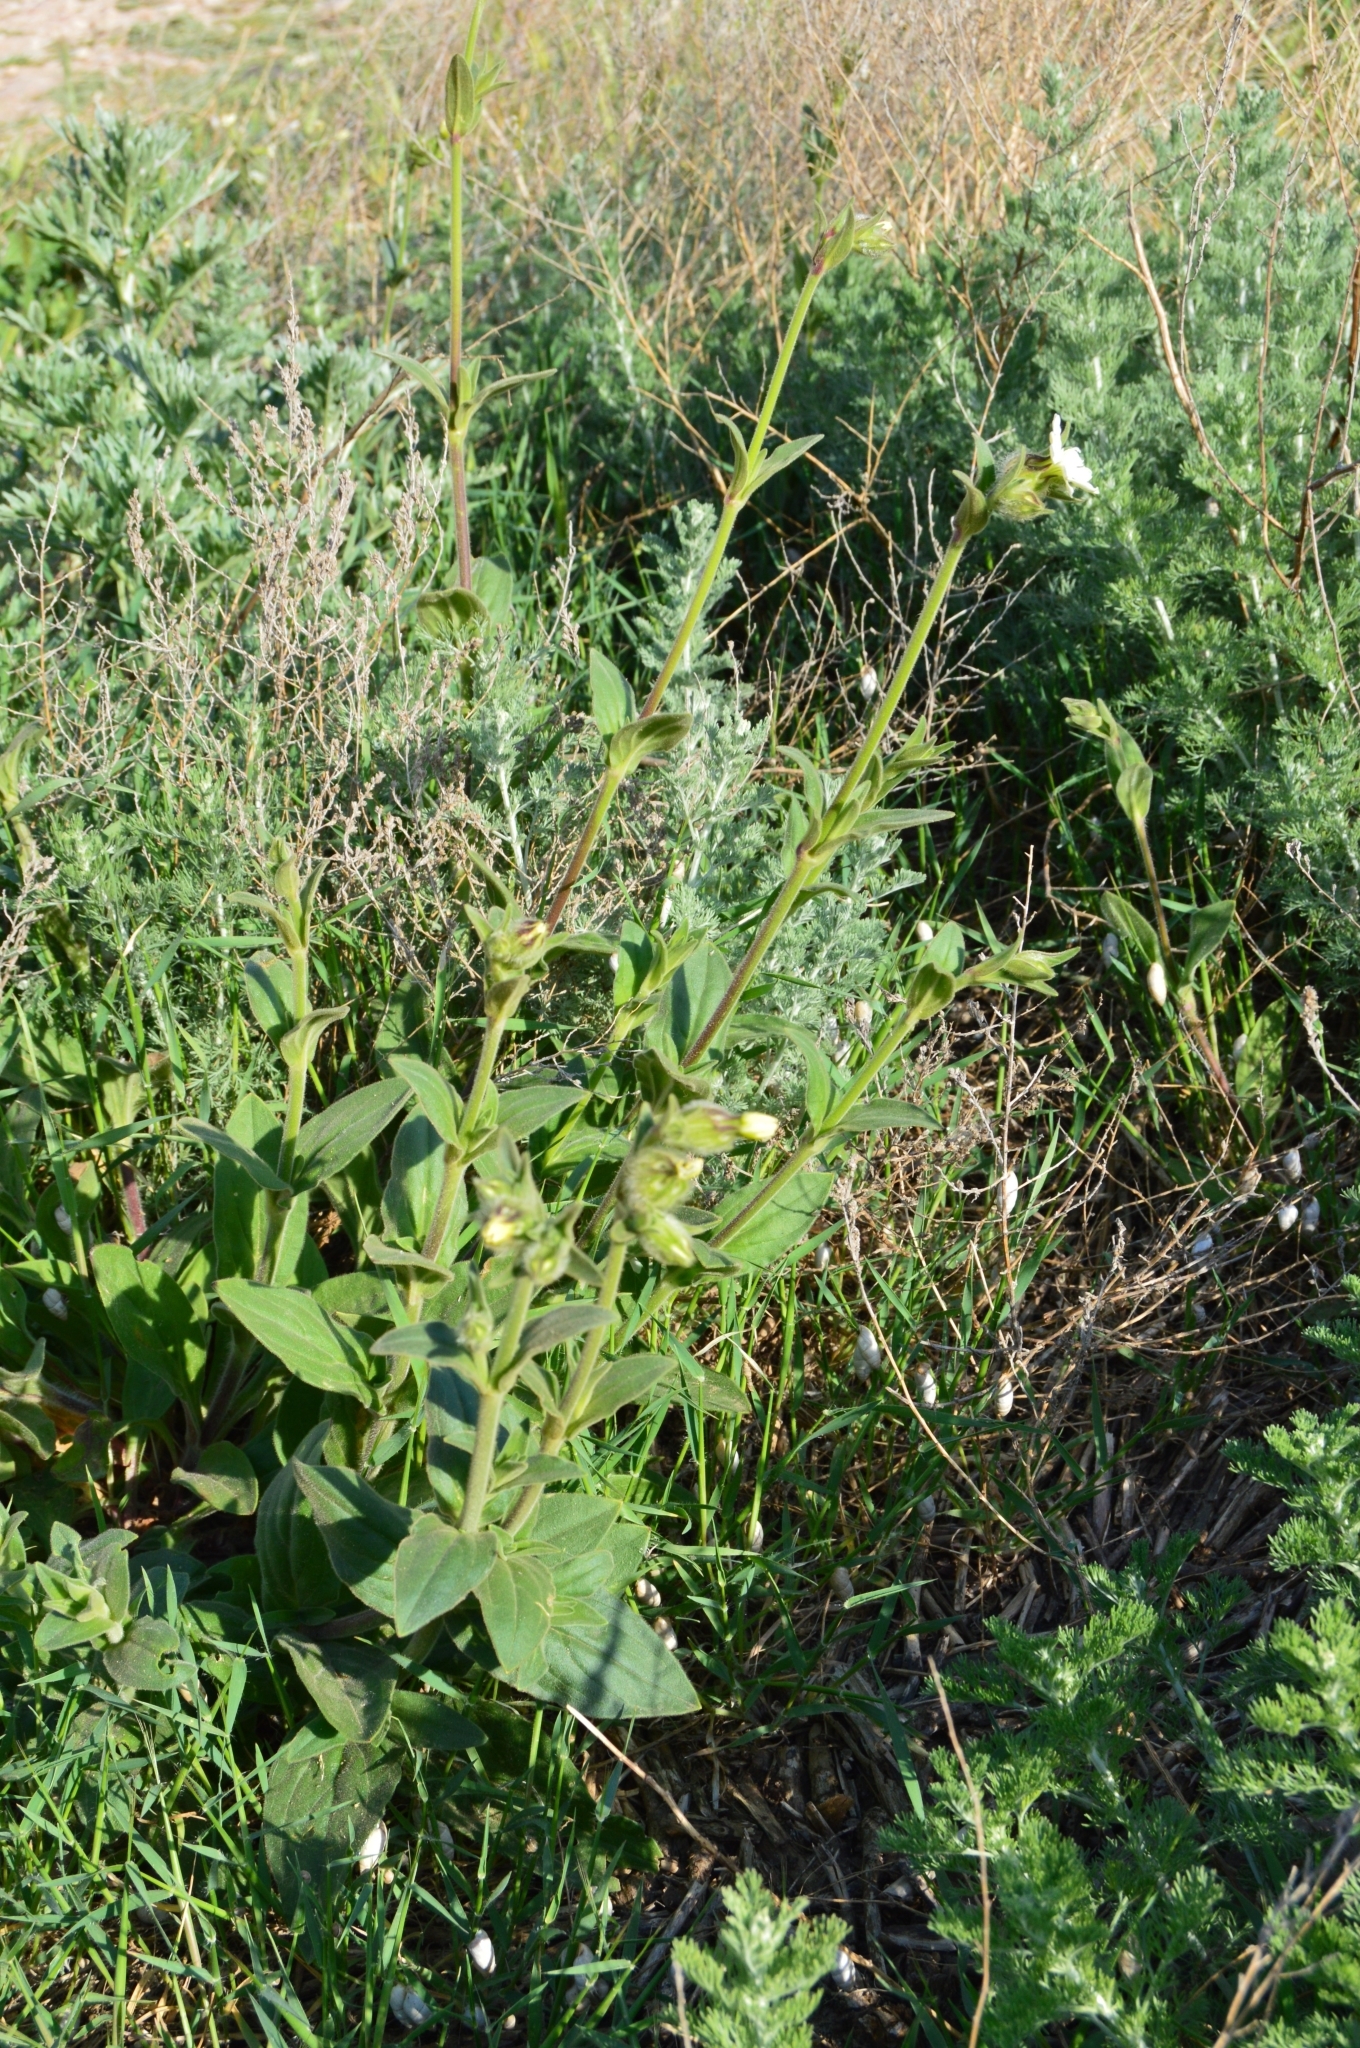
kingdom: Plantae
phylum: Tracheophyta
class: Magnoliopsida
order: Caryophyllales
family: Caryophyllaceae
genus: Silene
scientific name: Silene latifolia
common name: White campion
